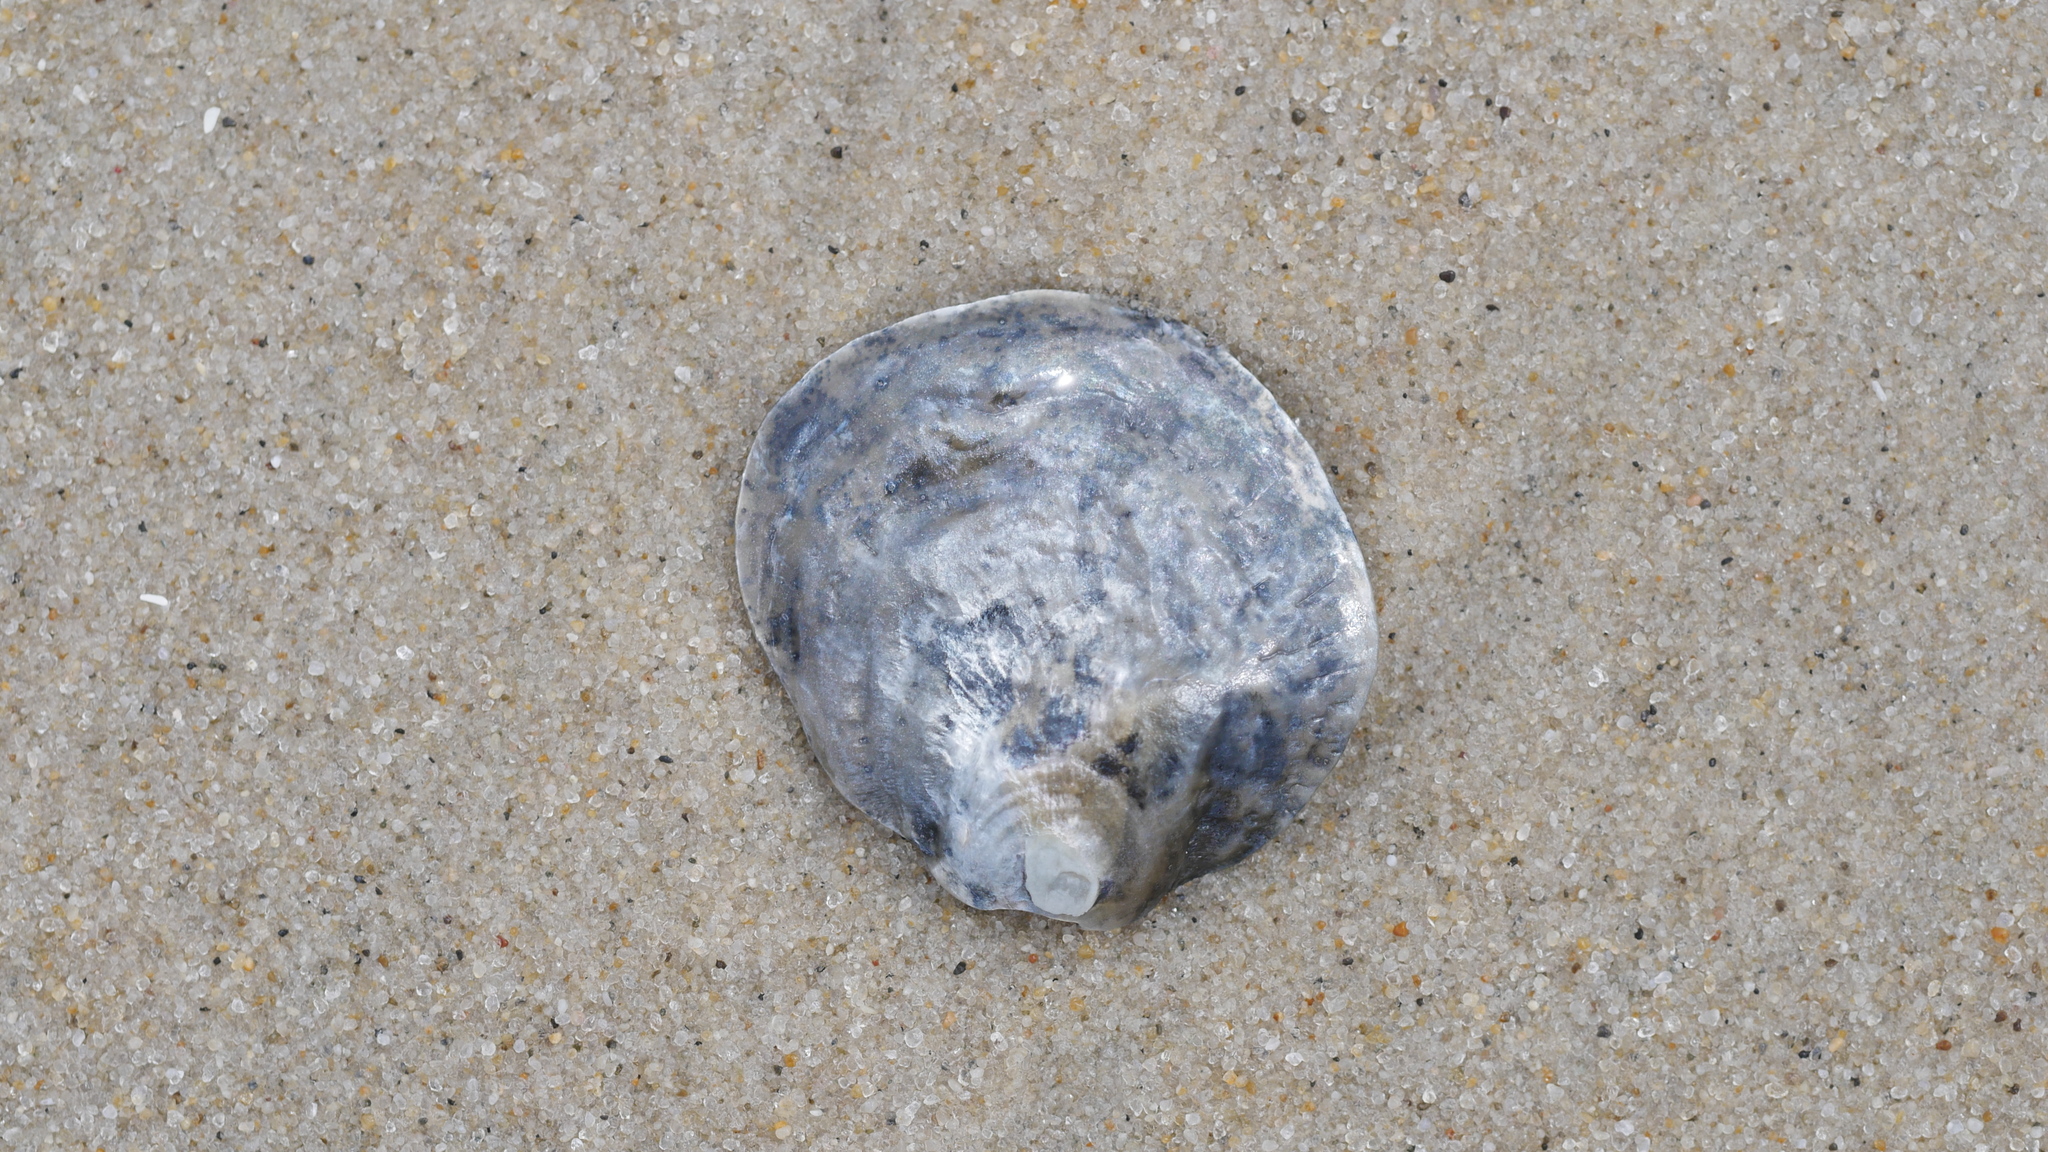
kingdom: Animalia
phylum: Mollusca
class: Bivalvia
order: Pectinida
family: Anomiidae
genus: Anomia
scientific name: Anomia simplex
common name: Common jingle shell
